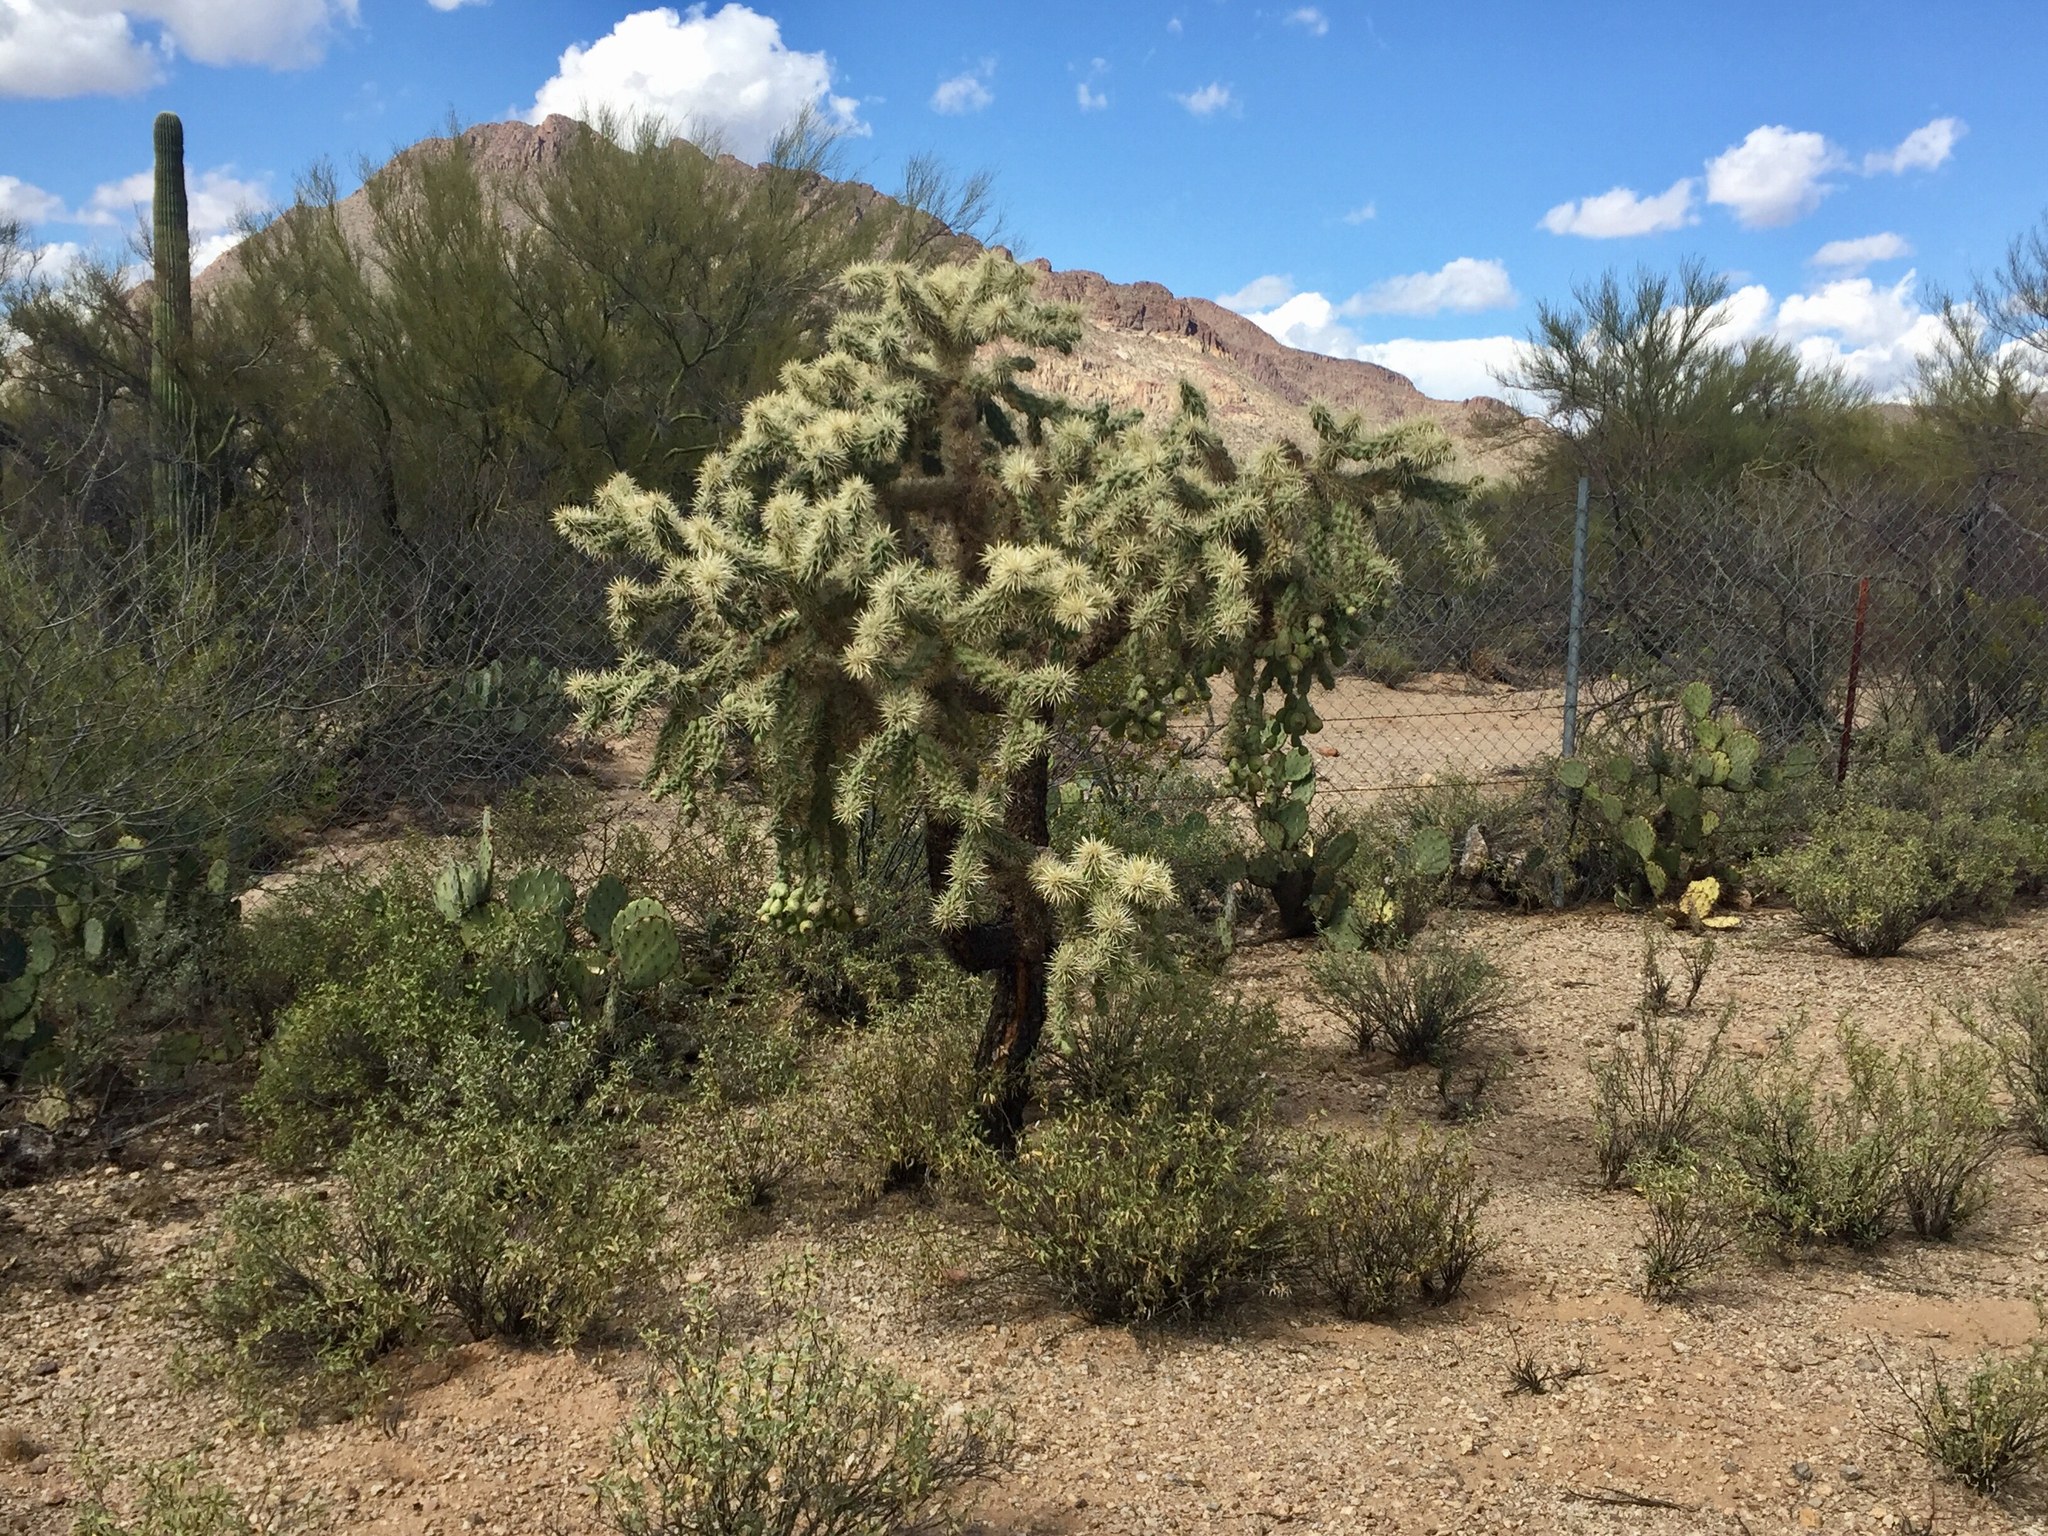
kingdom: Plantae
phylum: Tracheophyta
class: Magnoliopsida
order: Caryophyllales
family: Cactaceae
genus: Cylindropuntia
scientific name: Cylindropuntia fulgida
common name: Jumping cholla
